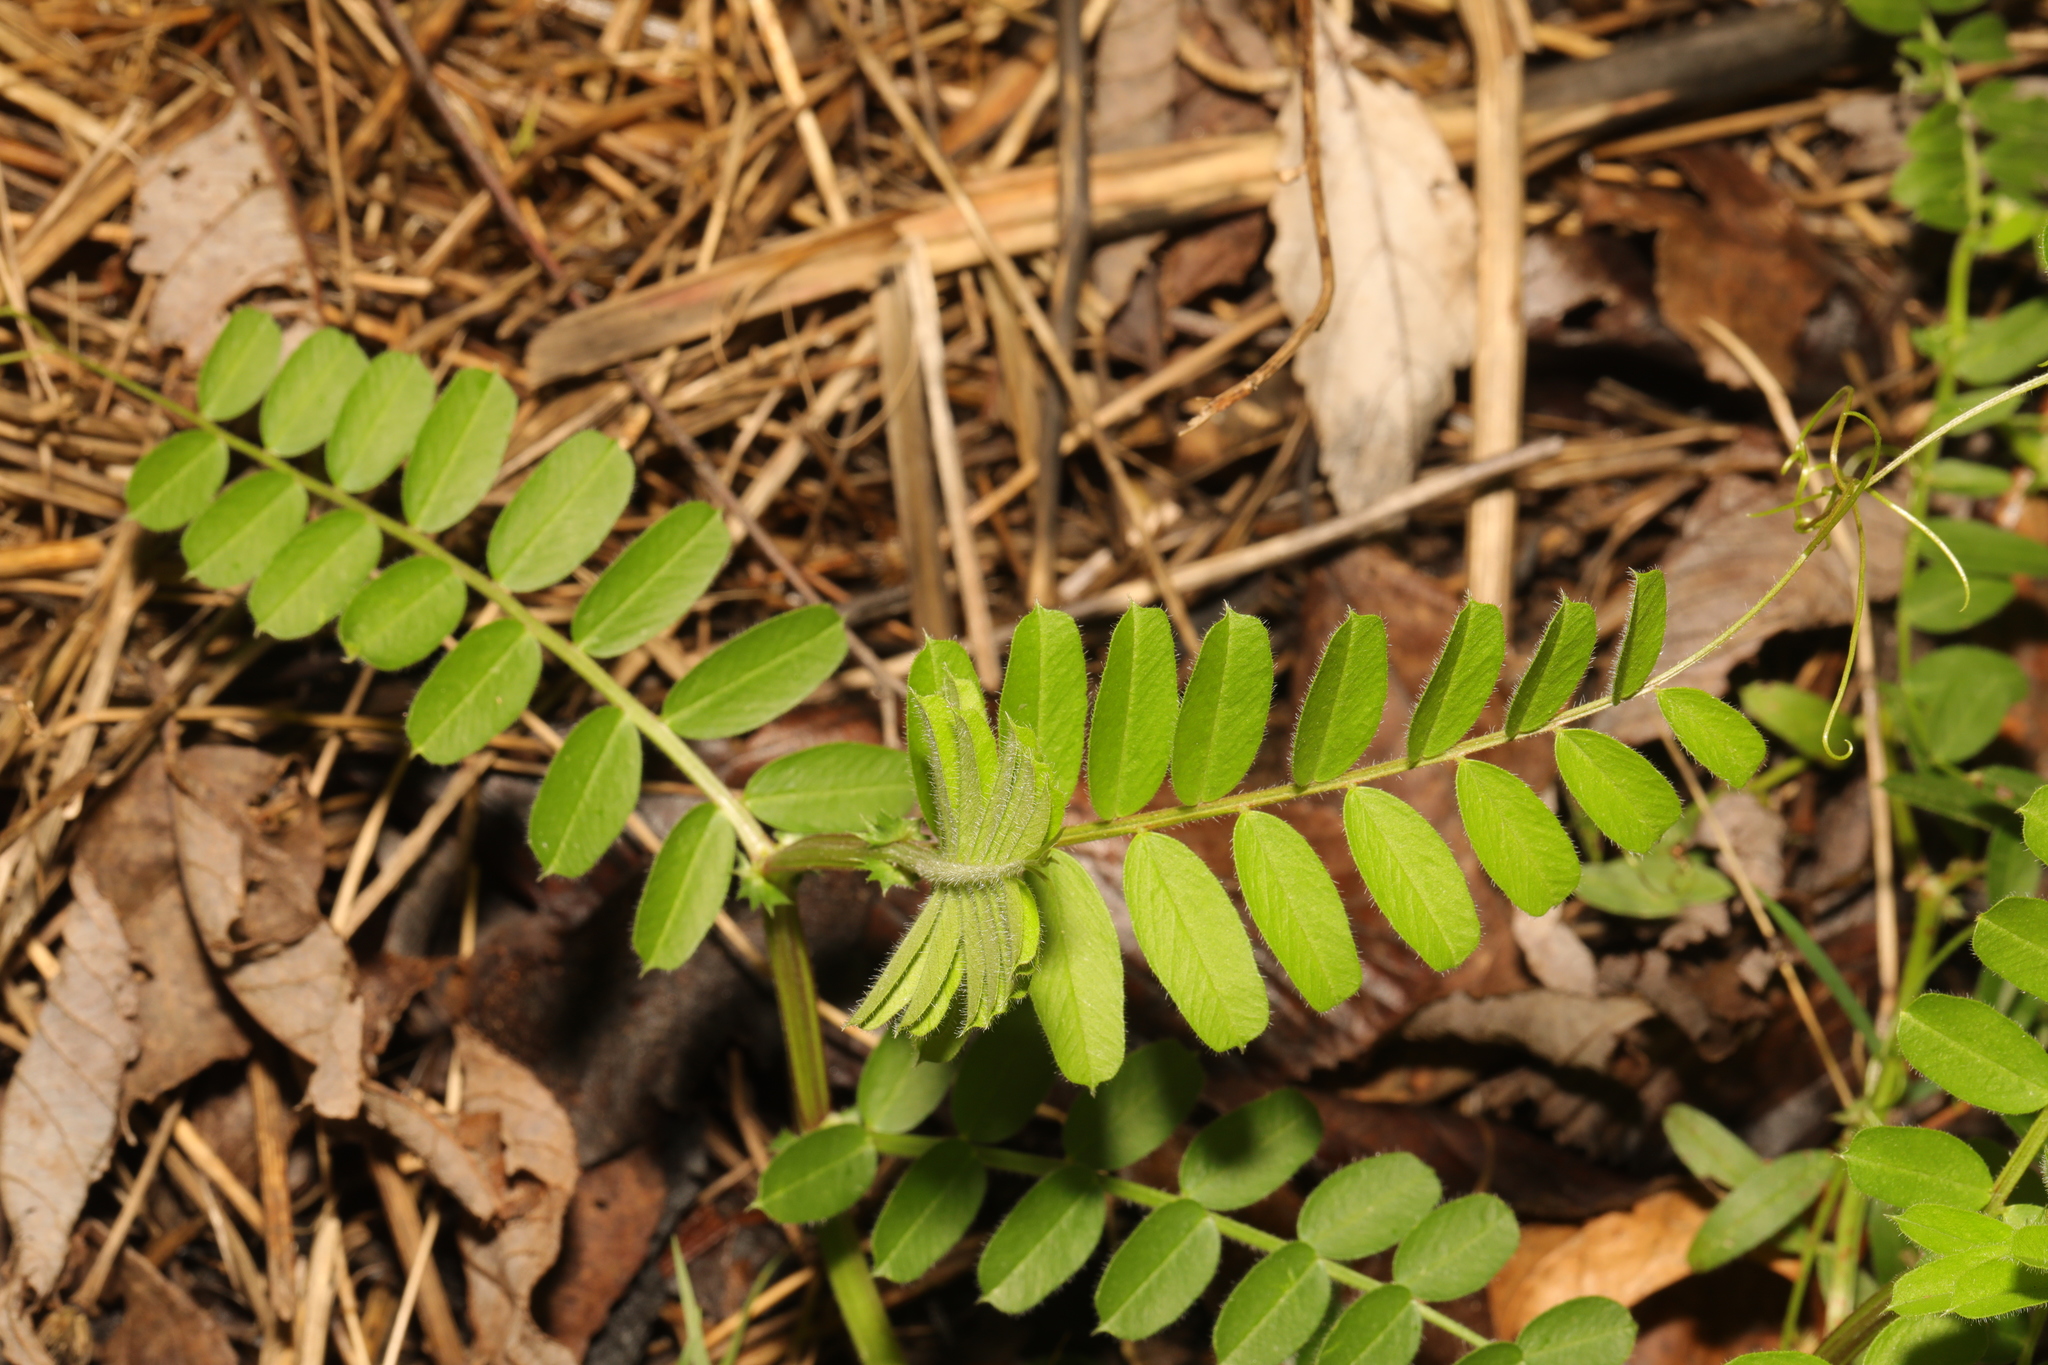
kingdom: Plantae
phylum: Tracheophyta
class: Magnoliopsida
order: Fabales
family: Fabaceae
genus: Vicia
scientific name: Vicia sativa
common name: Garden vetch
